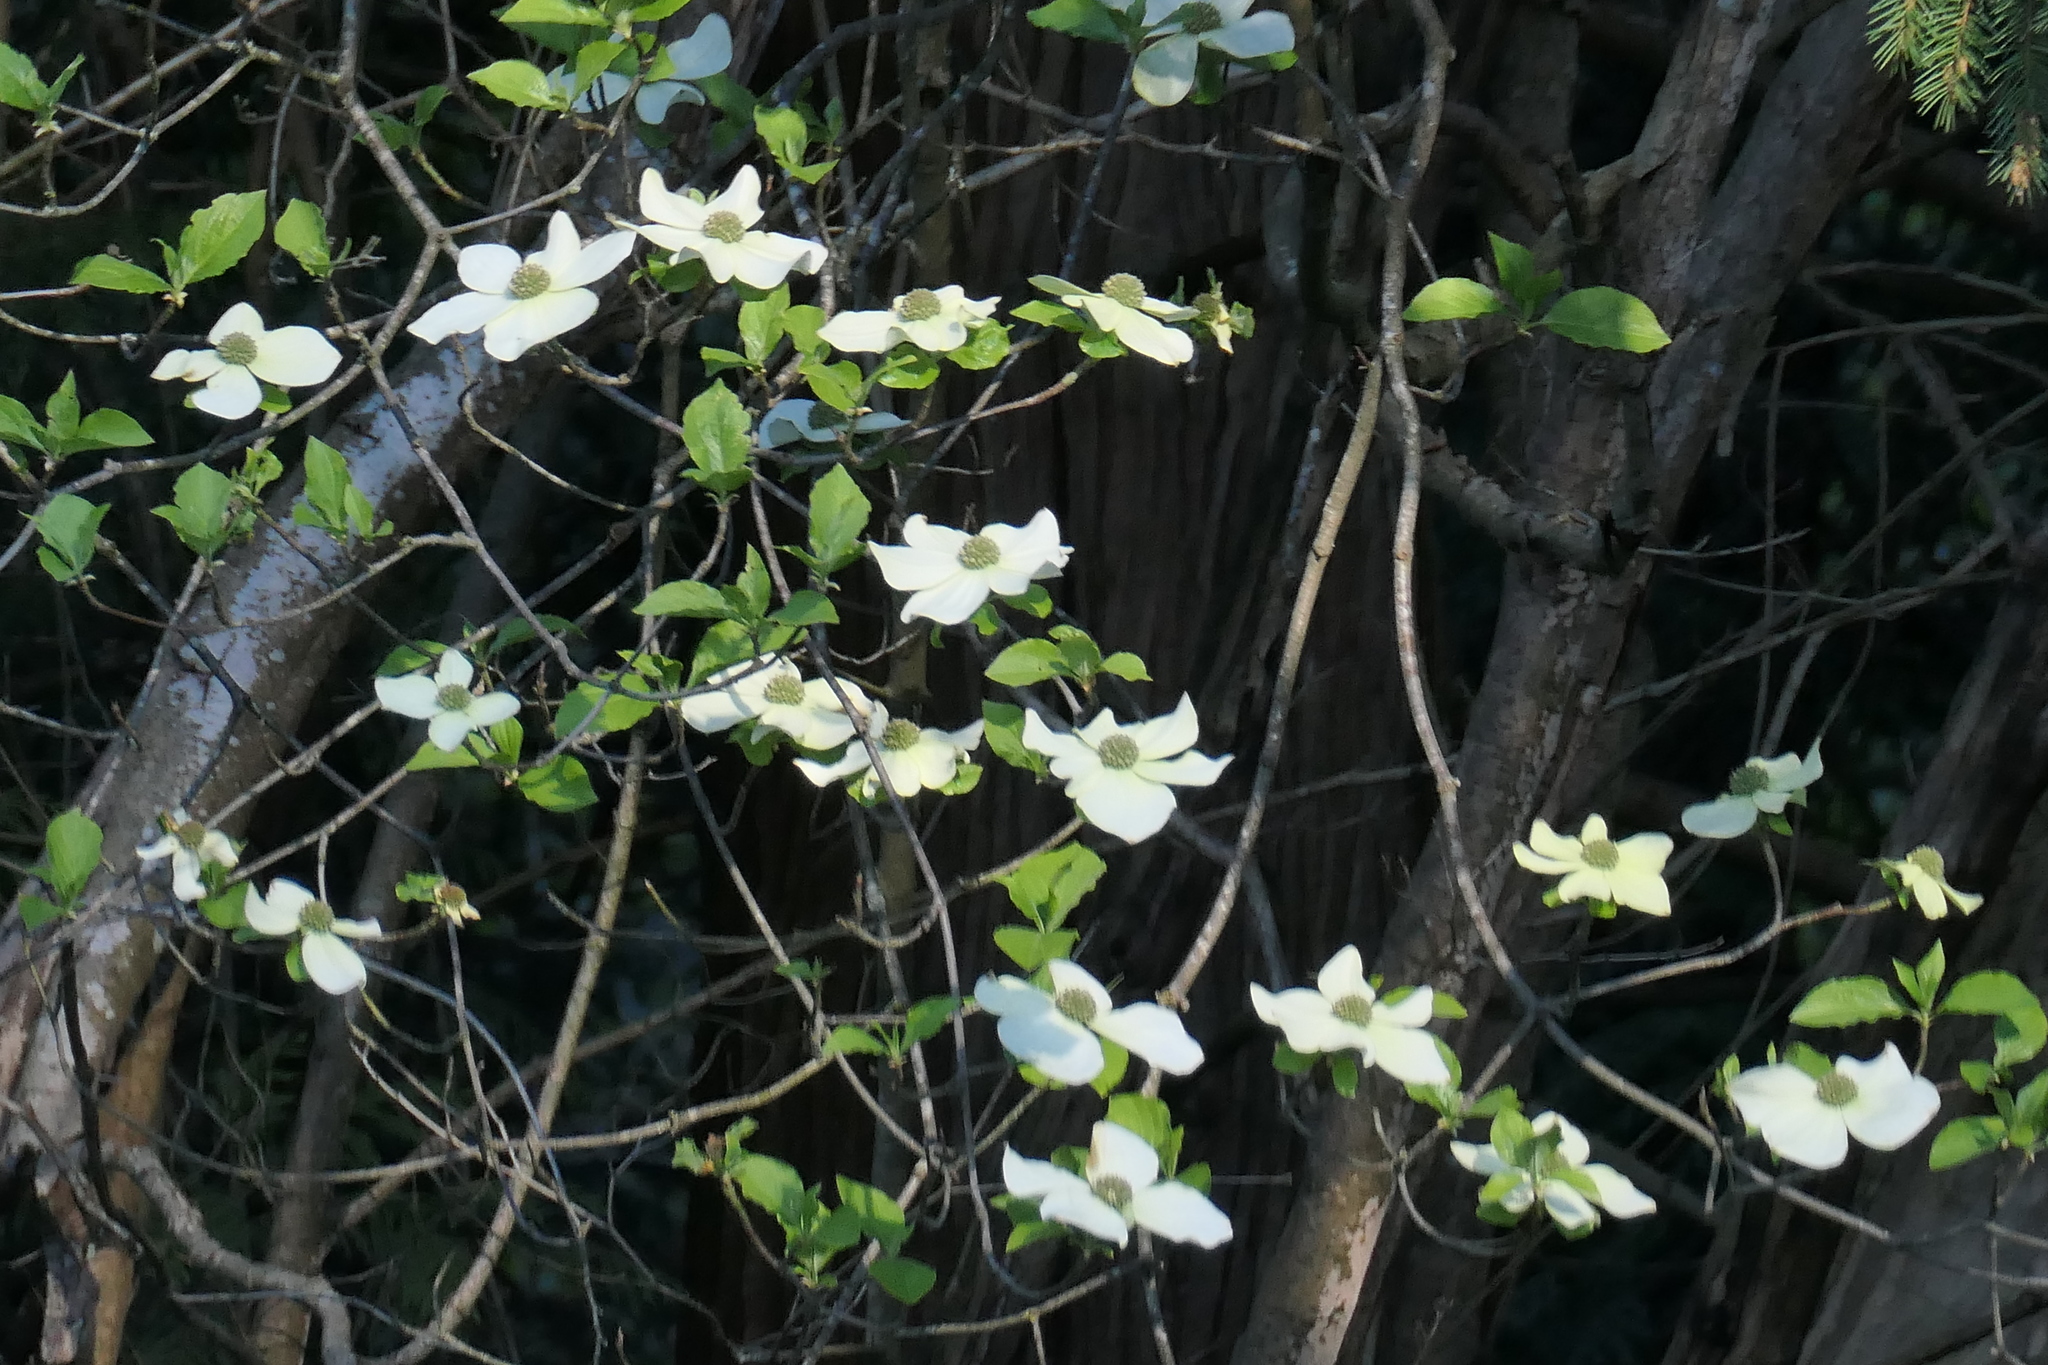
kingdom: Plantae
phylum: Tracheophyta
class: Magnoliopsida
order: Cornales
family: Cornaceae
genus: Cornus
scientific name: Cornus nuttallii
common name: Pacific dogwood
